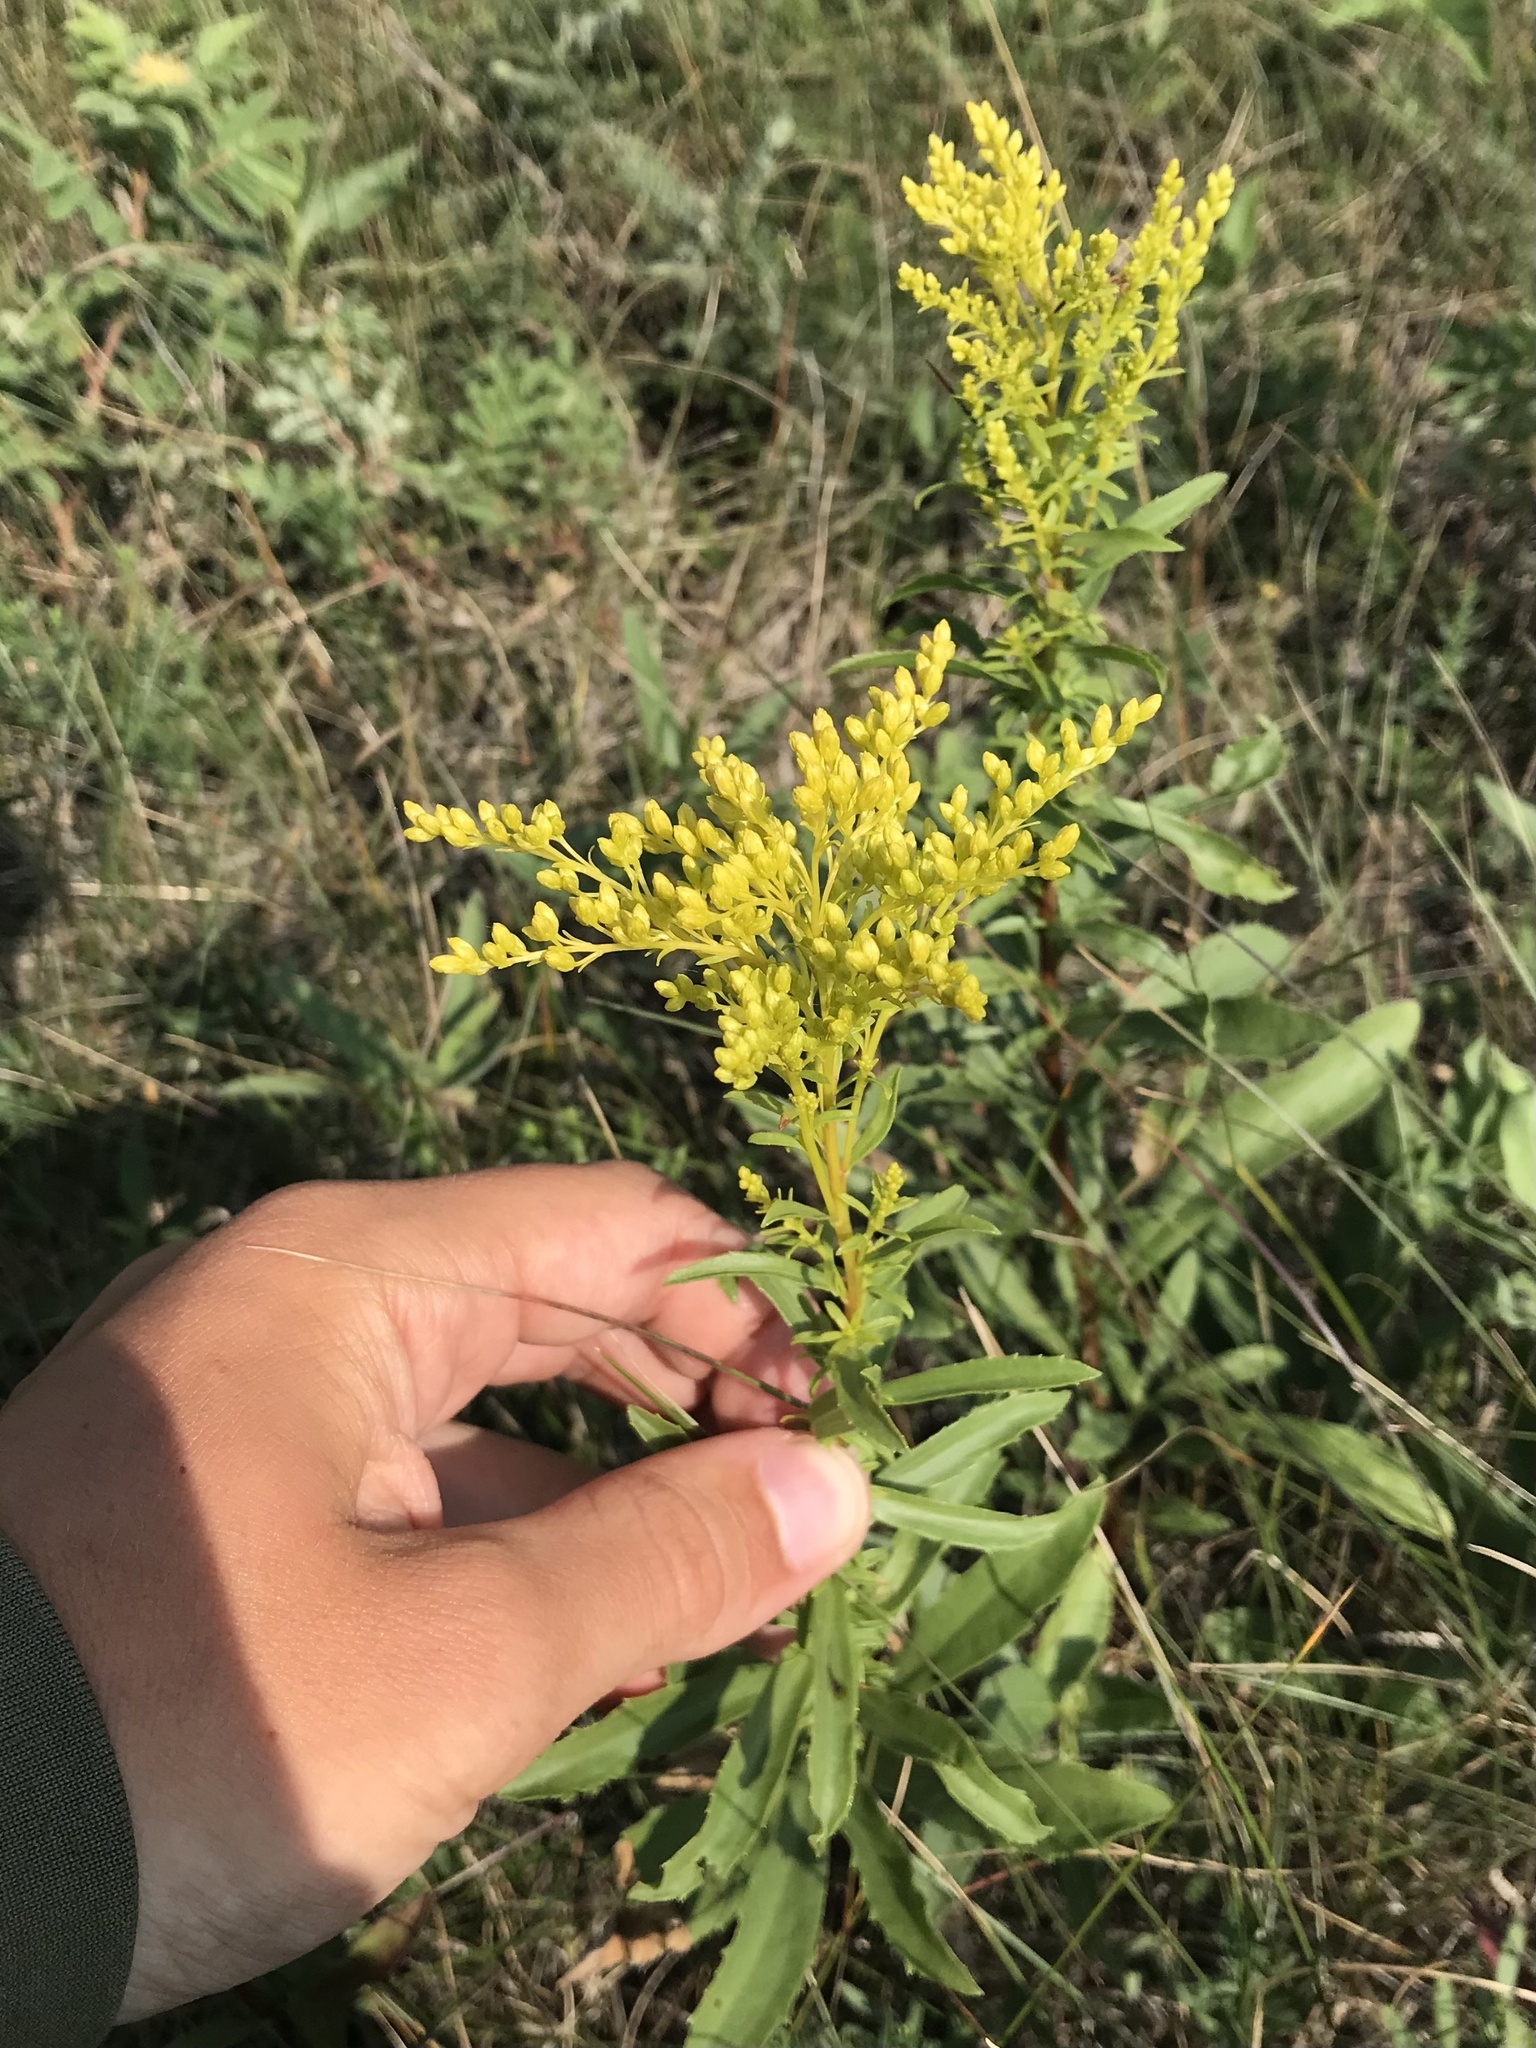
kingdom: Plantae
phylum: Tracheophyta
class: Magnoliopsida
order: Asterales
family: Asteraceae
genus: Solidago
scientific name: Solidago missouriensis
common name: Prairie goldenrod
